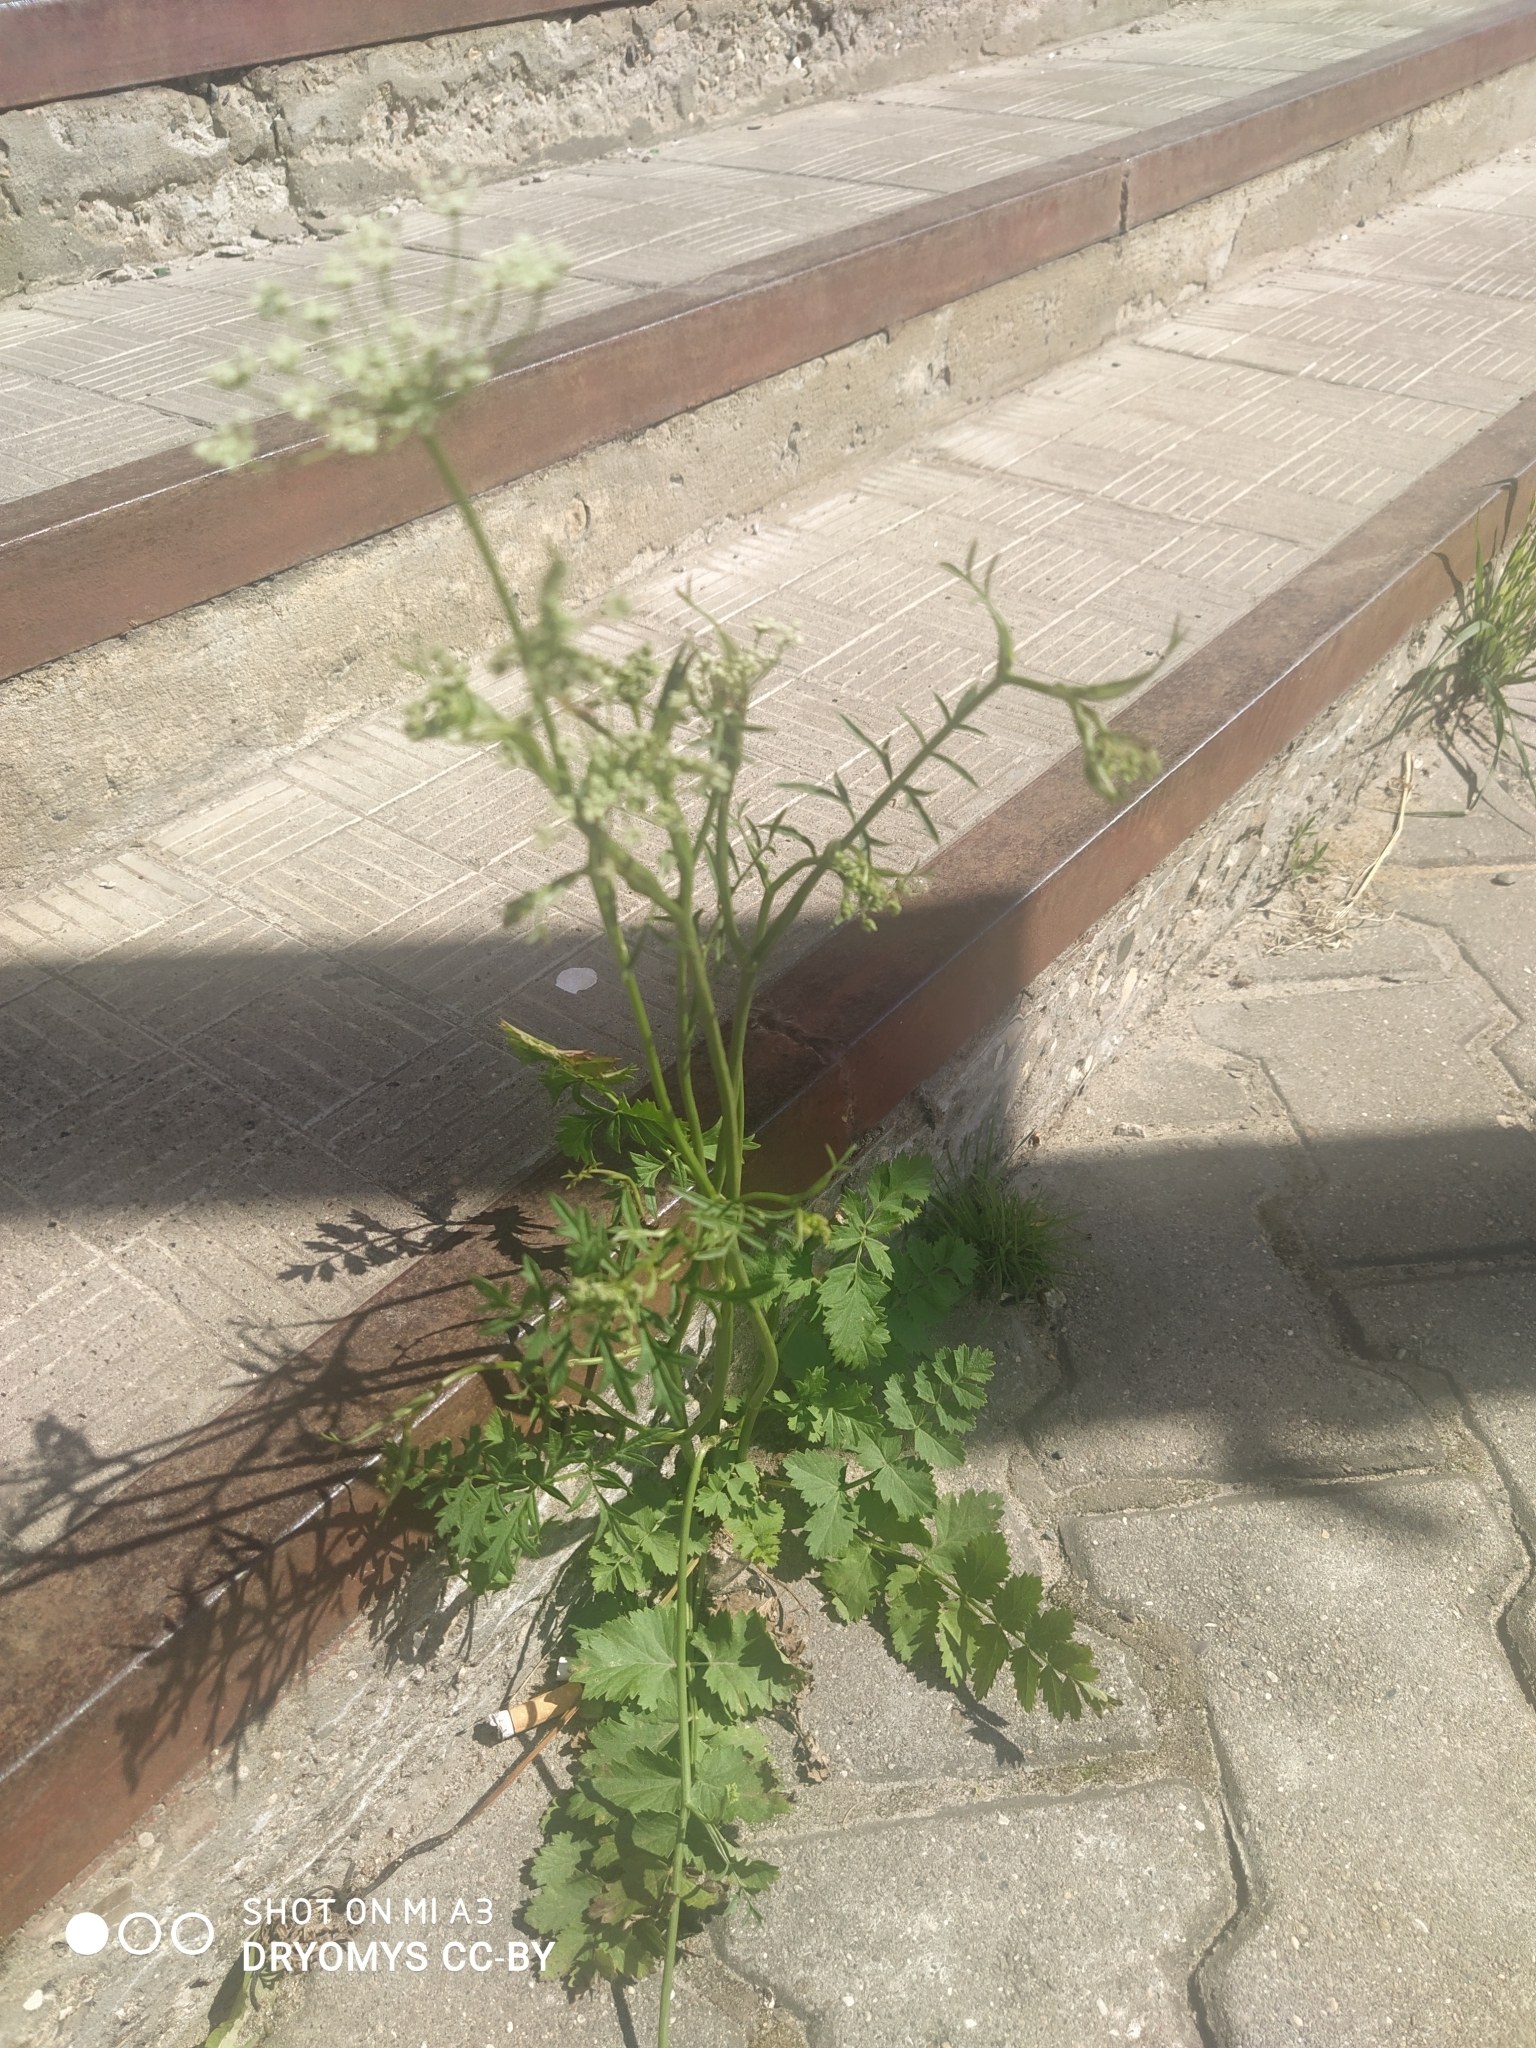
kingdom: Plantae
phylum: Tracheophyta
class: Magnoliopsida
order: Apiales
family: Apiaceae
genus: Pimpinella
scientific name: Pimpinella saxifraga
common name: Burnet-saxifrage
